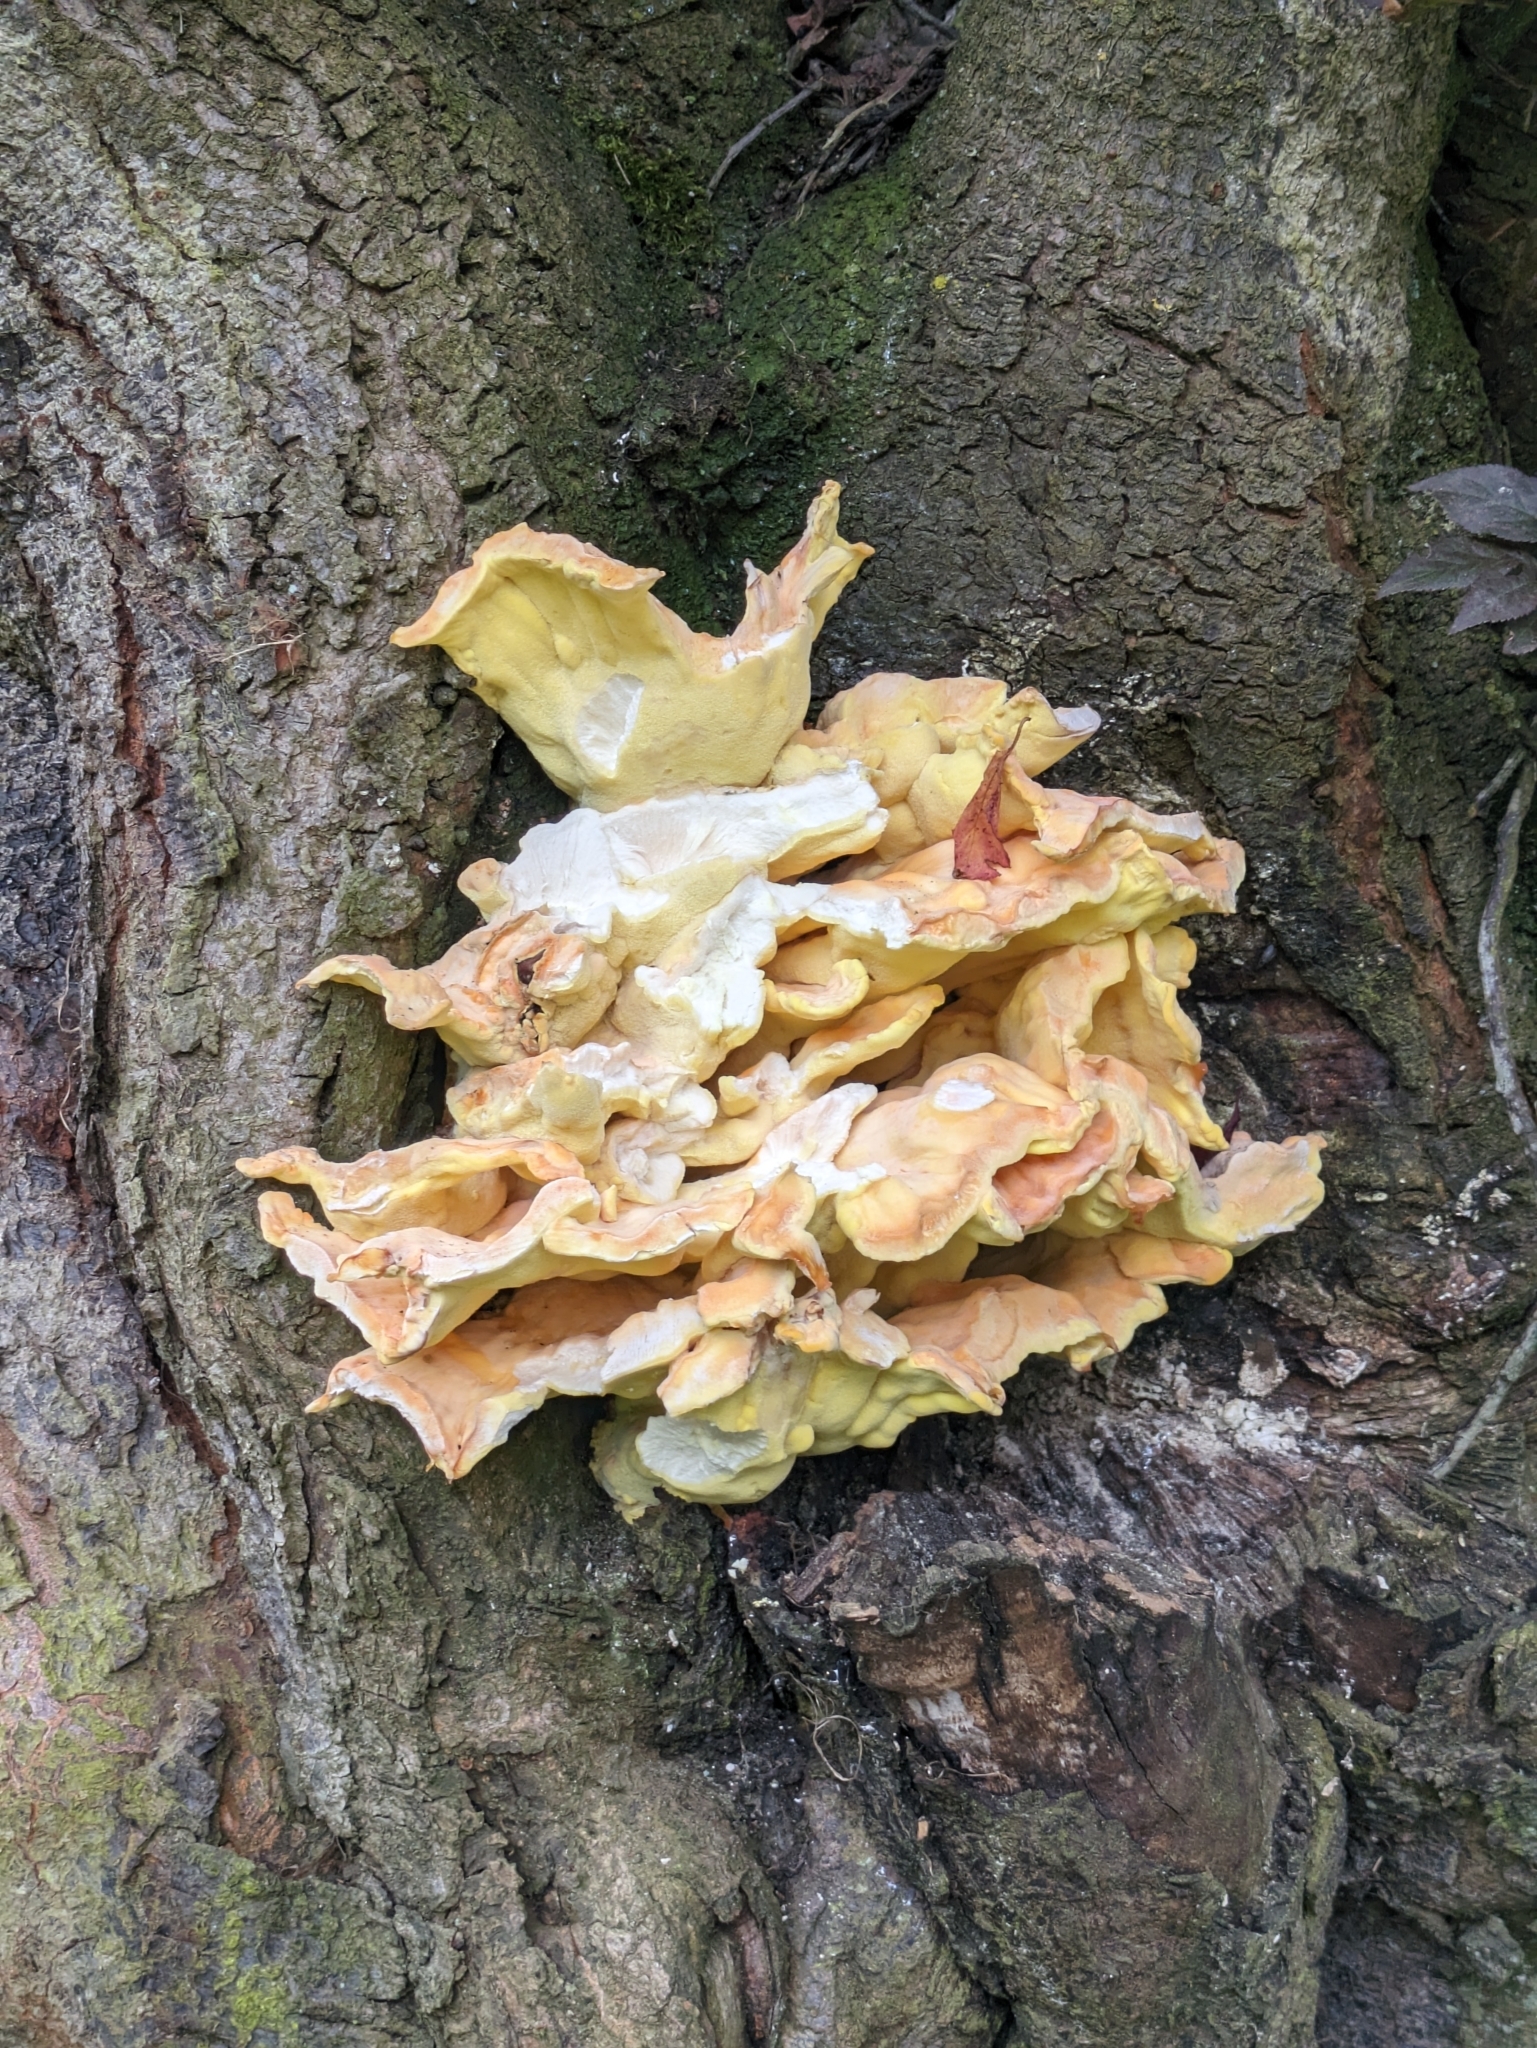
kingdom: Fungi
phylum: Basidiomycota
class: Agaricomycetes
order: Polyporales
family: Laetiporaceae
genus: Laetiporus
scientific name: Laetiporus sulphureus
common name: Chicken of the woods
